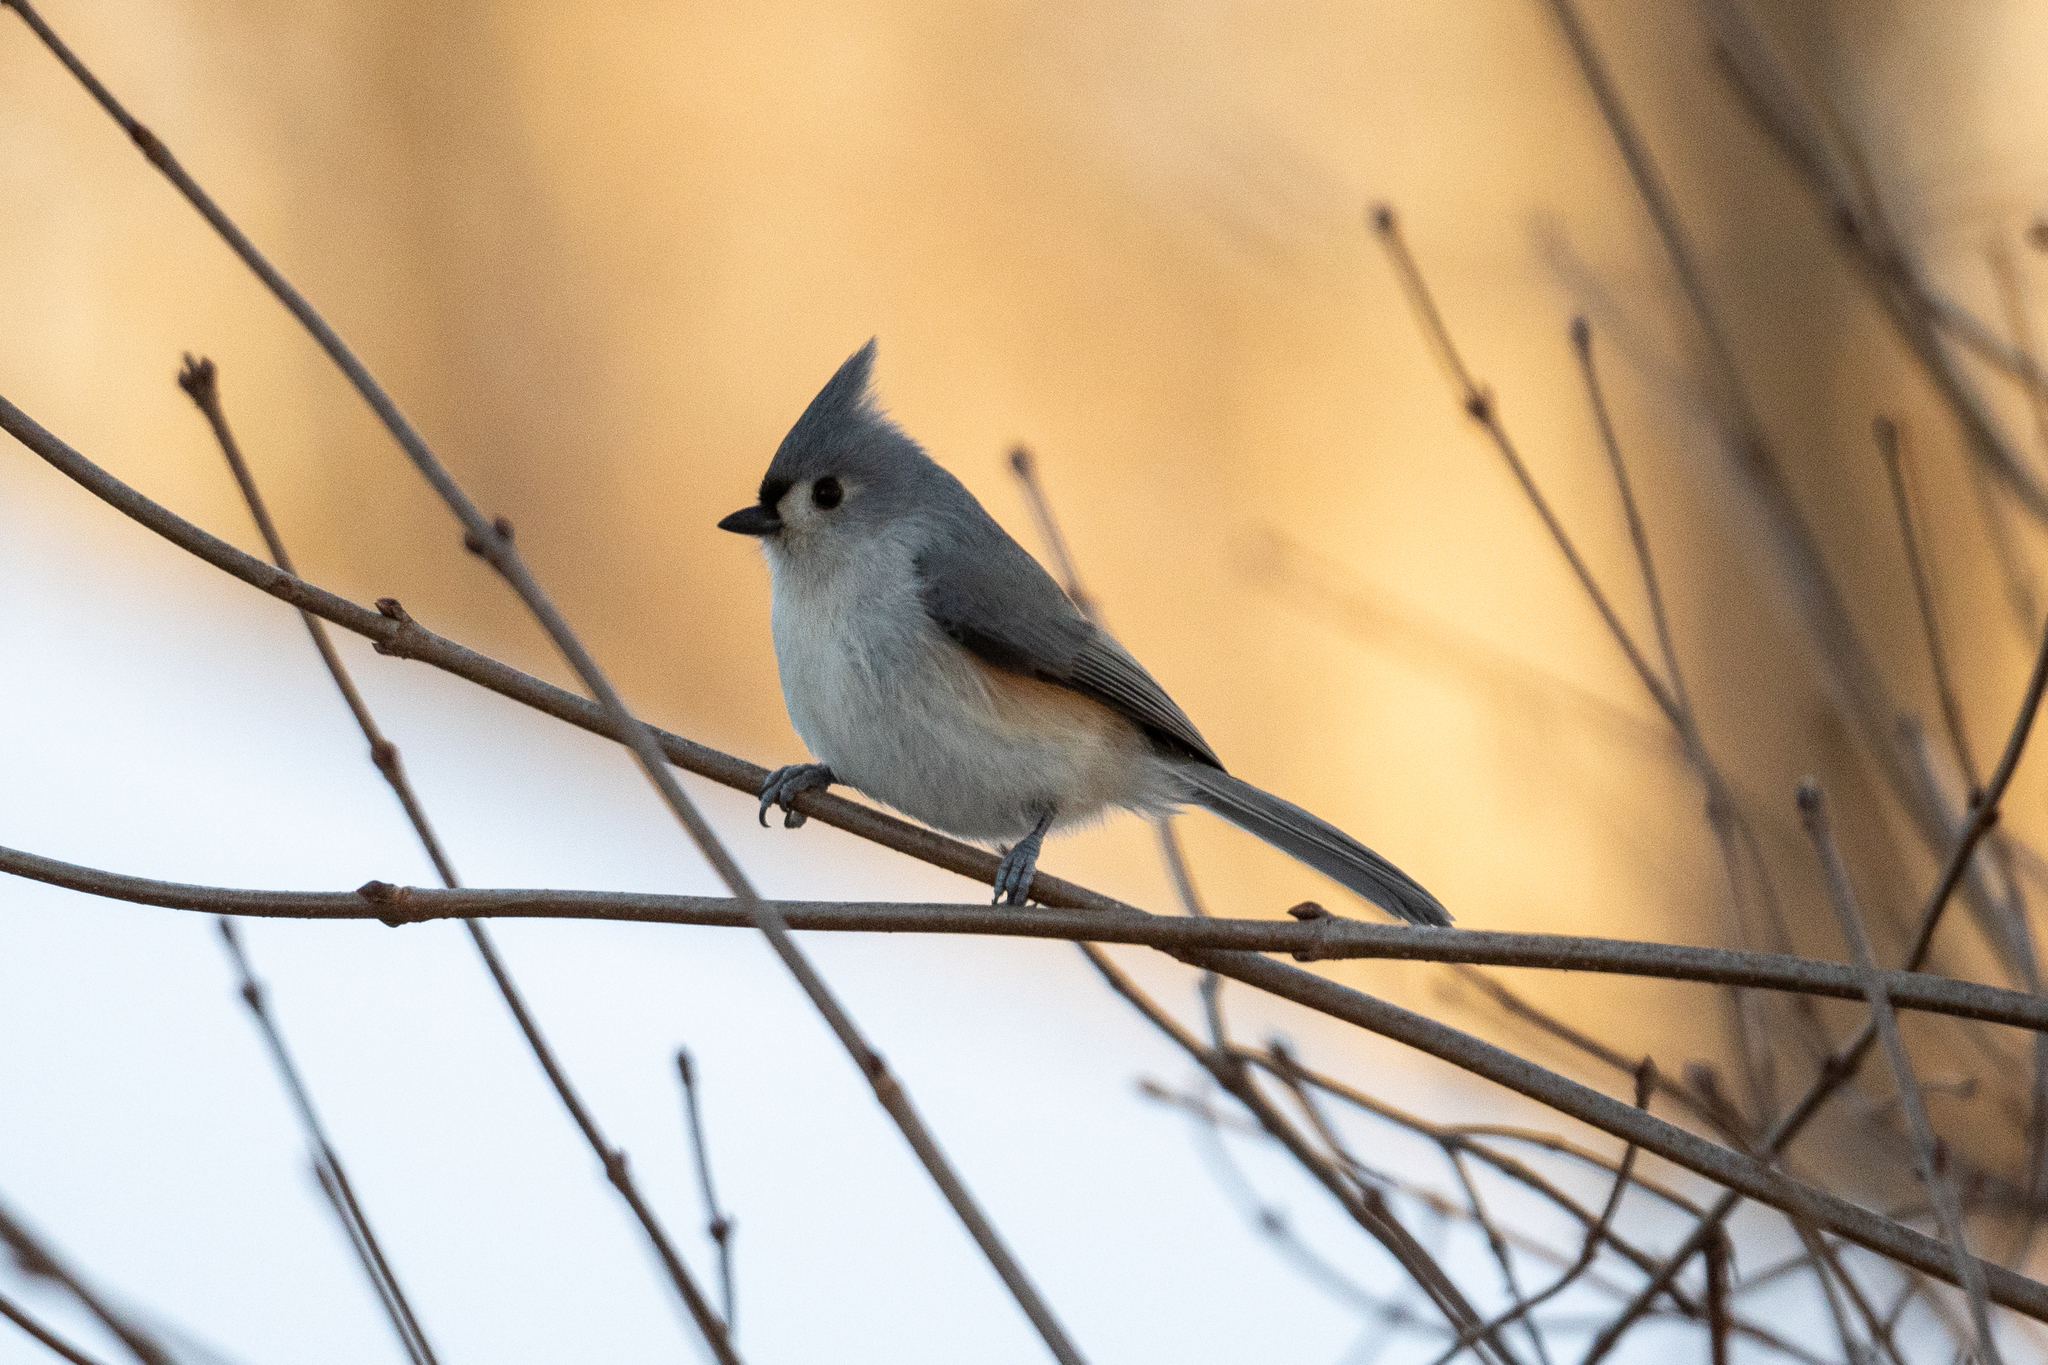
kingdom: Animalia
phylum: Chordata
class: Aves
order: Passeriformes
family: Paridae
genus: Baeolophus
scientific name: Baeolophus bicolor
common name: Tufted titmouse
